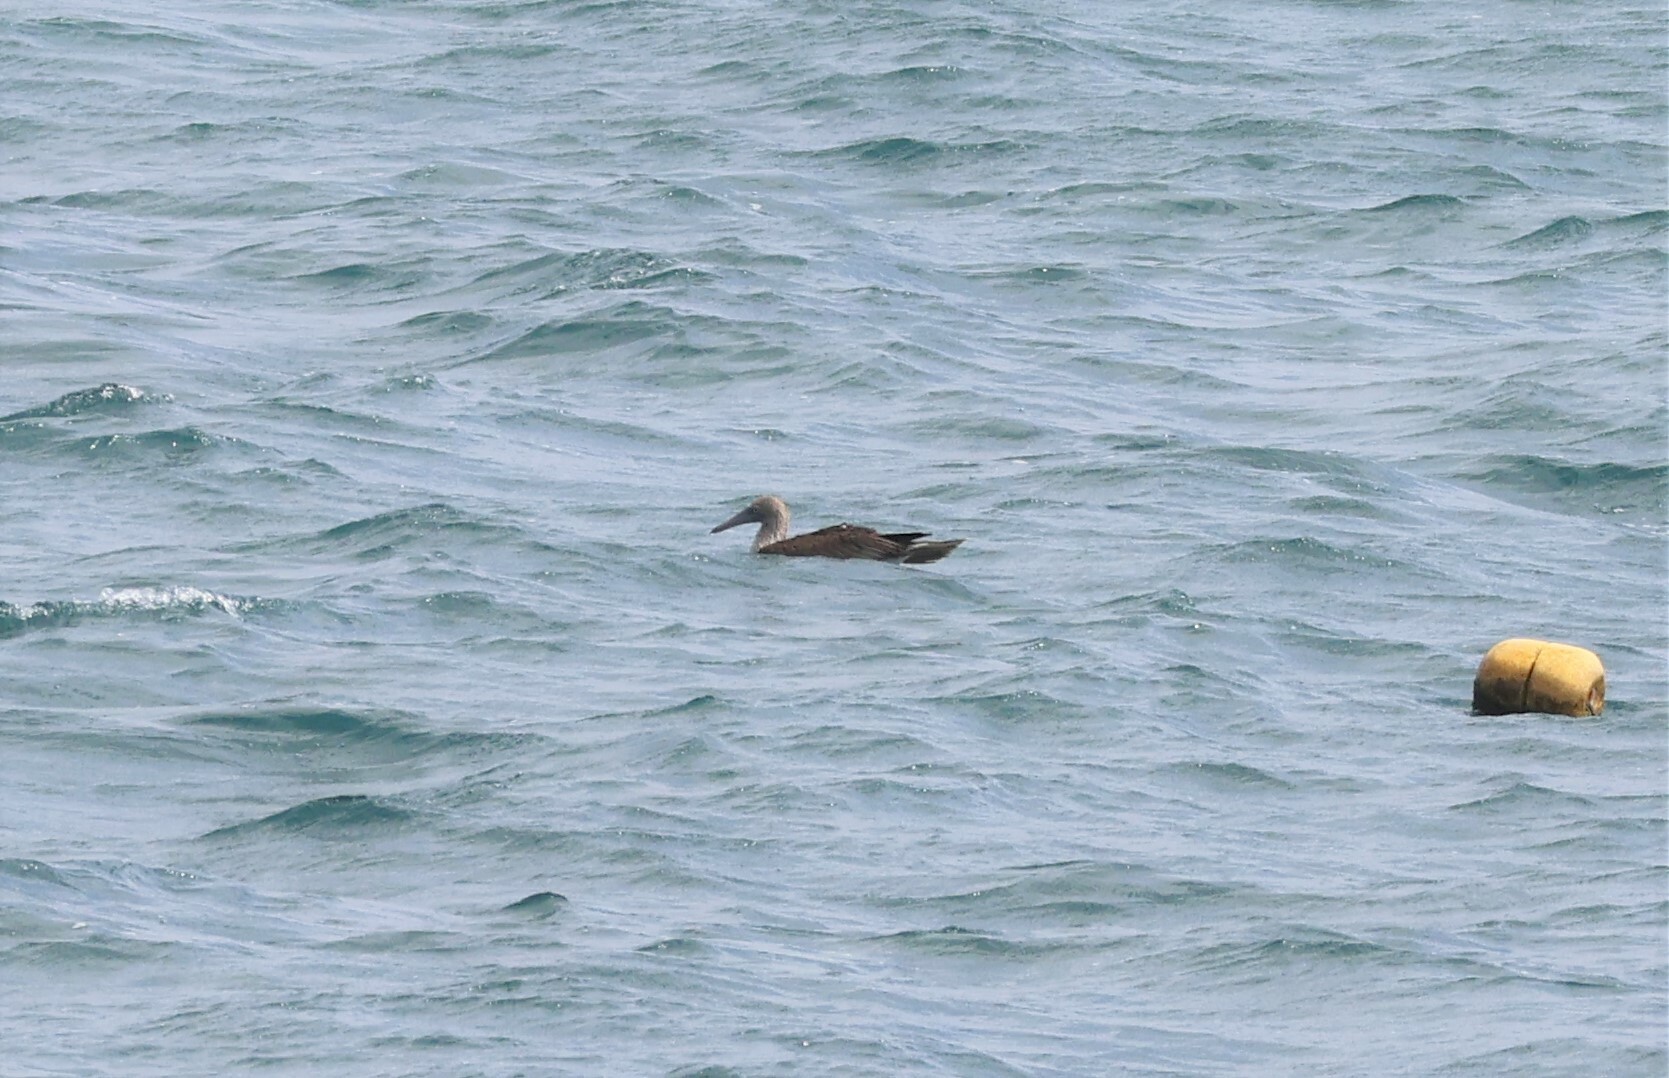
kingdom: Animalia
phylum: Chordata
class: Aves
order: Suliformes
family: Sulidae
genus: Sula
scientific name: Sula nebouxii
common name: Blue-footed booby
